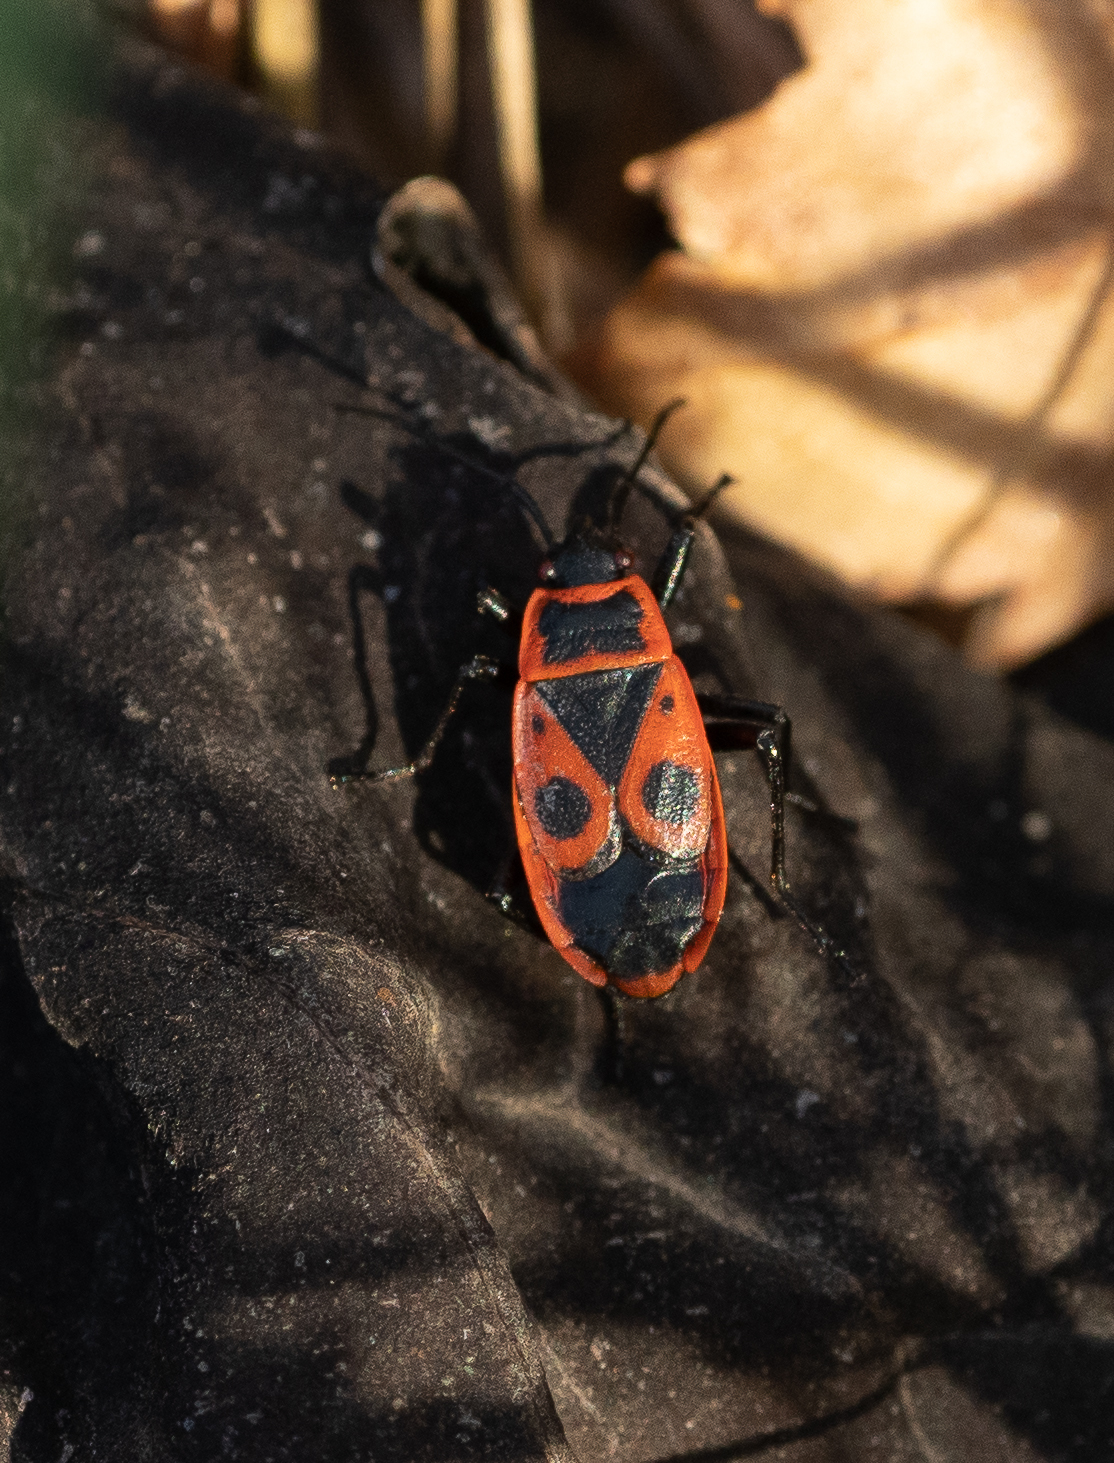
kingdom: Animalia
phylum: Arthropoda
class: Insecta
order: Hemiptera
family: Pyrrhocoridae
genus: Pyrrhocoris
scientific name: Pyrrhocoris apterus
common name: Firebug
